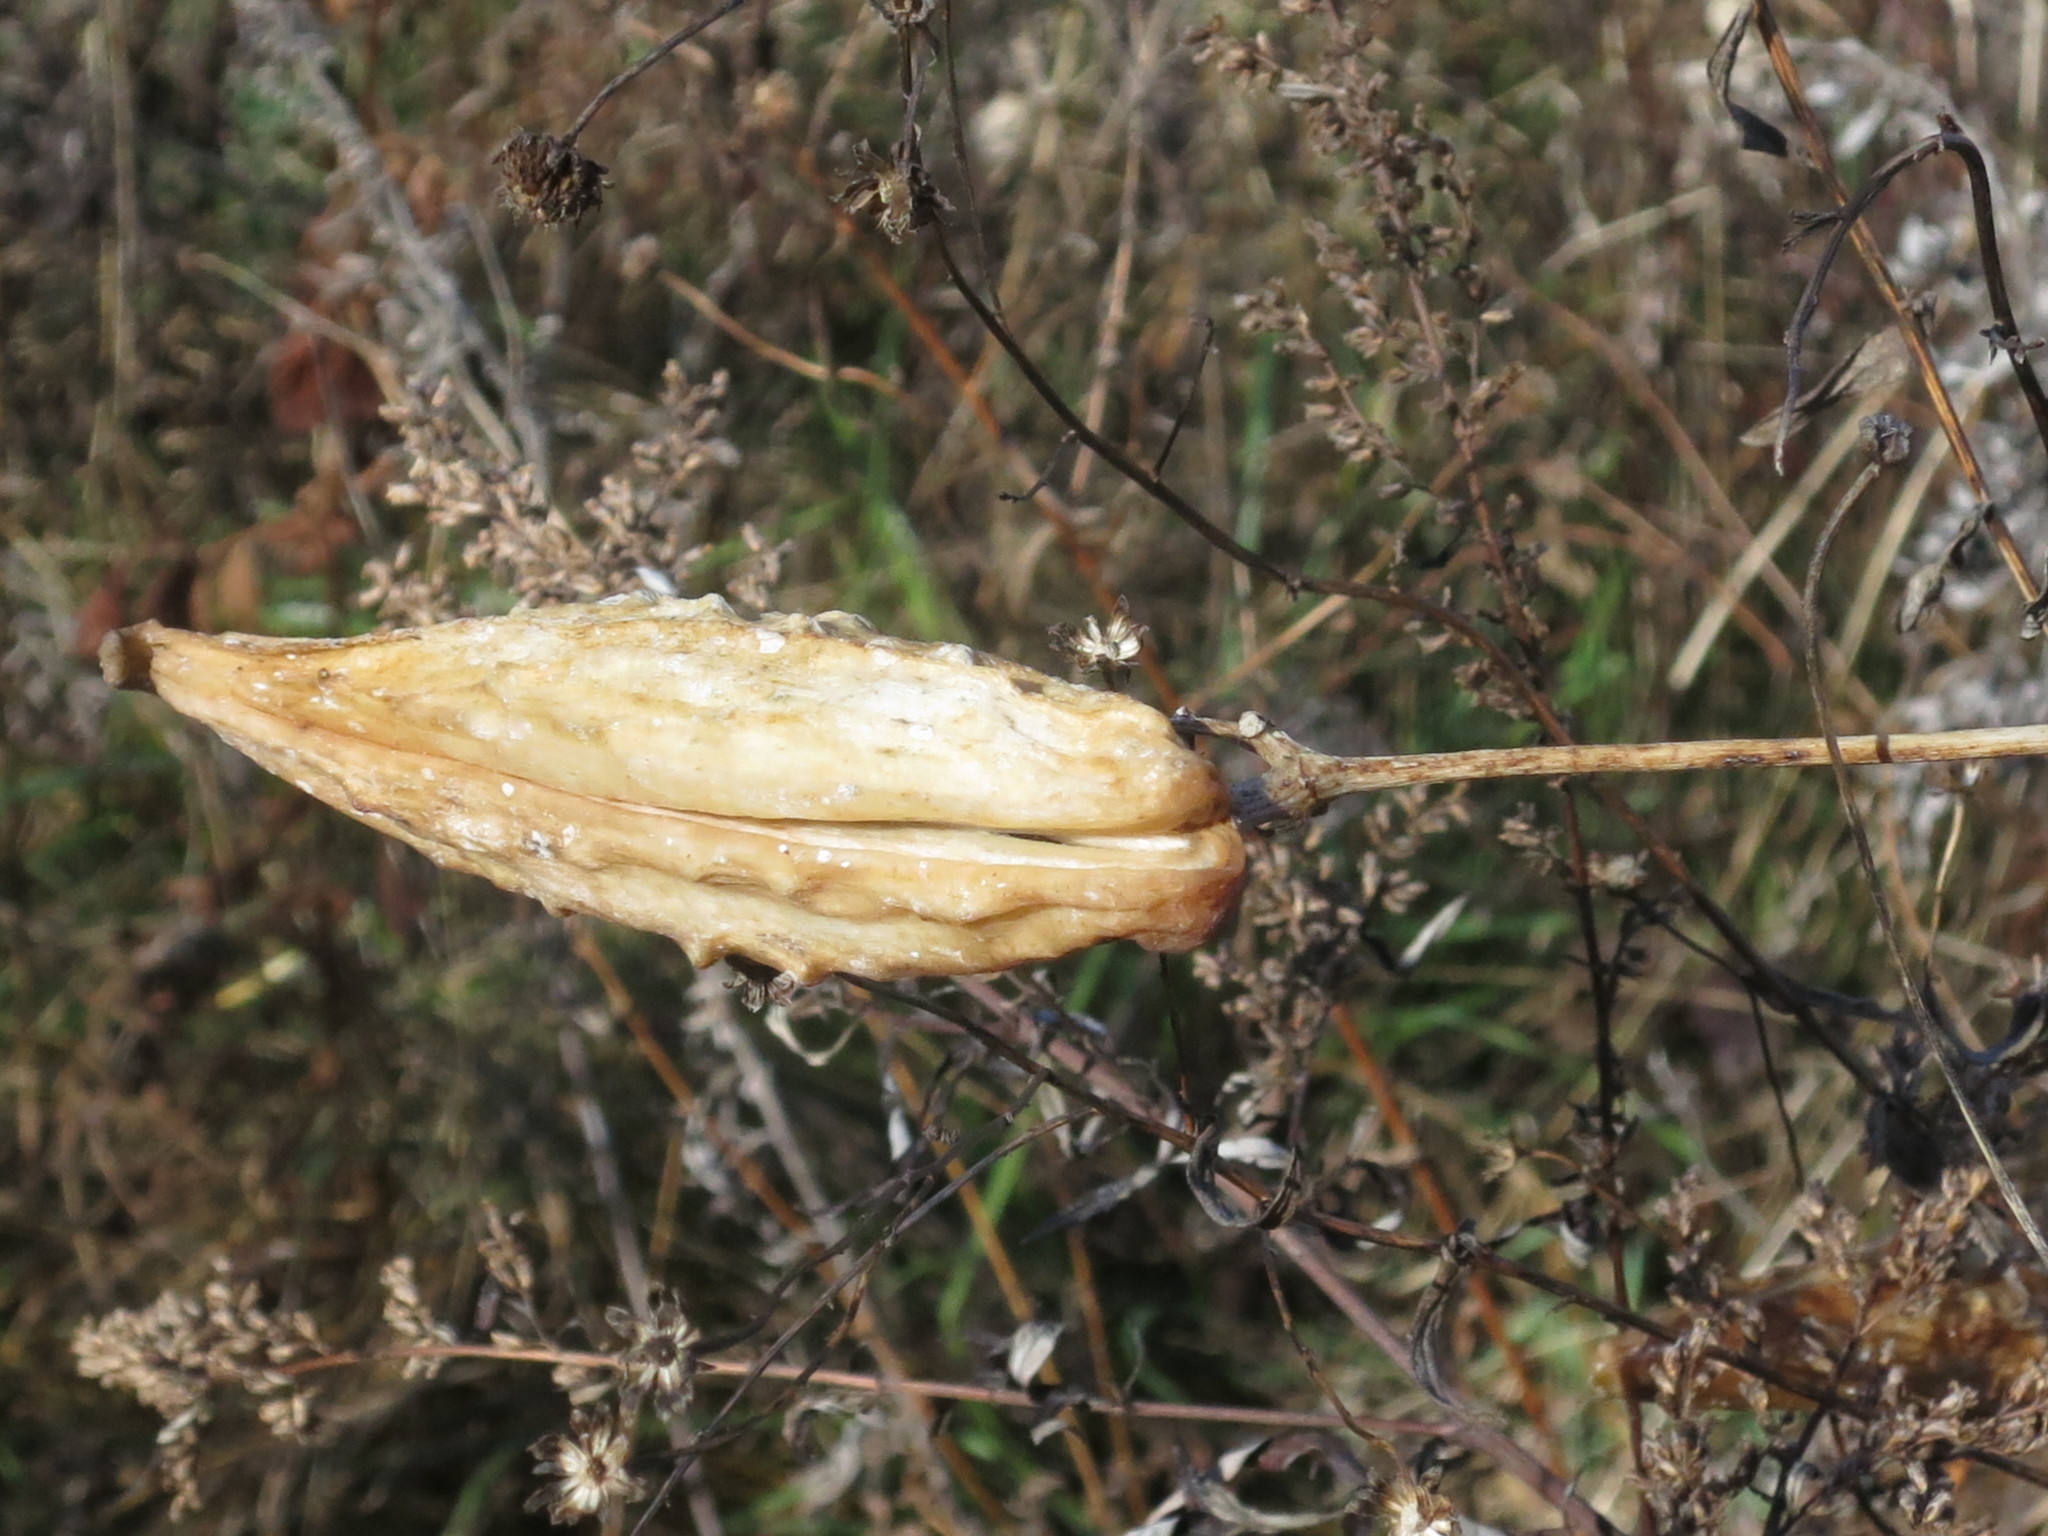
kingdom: Plantae
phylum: Tracheophyta
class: Magnoliopsida
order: Gentianales
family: Apocynaceae
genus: Cynanchum
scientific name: Cynanchum rostellatum
